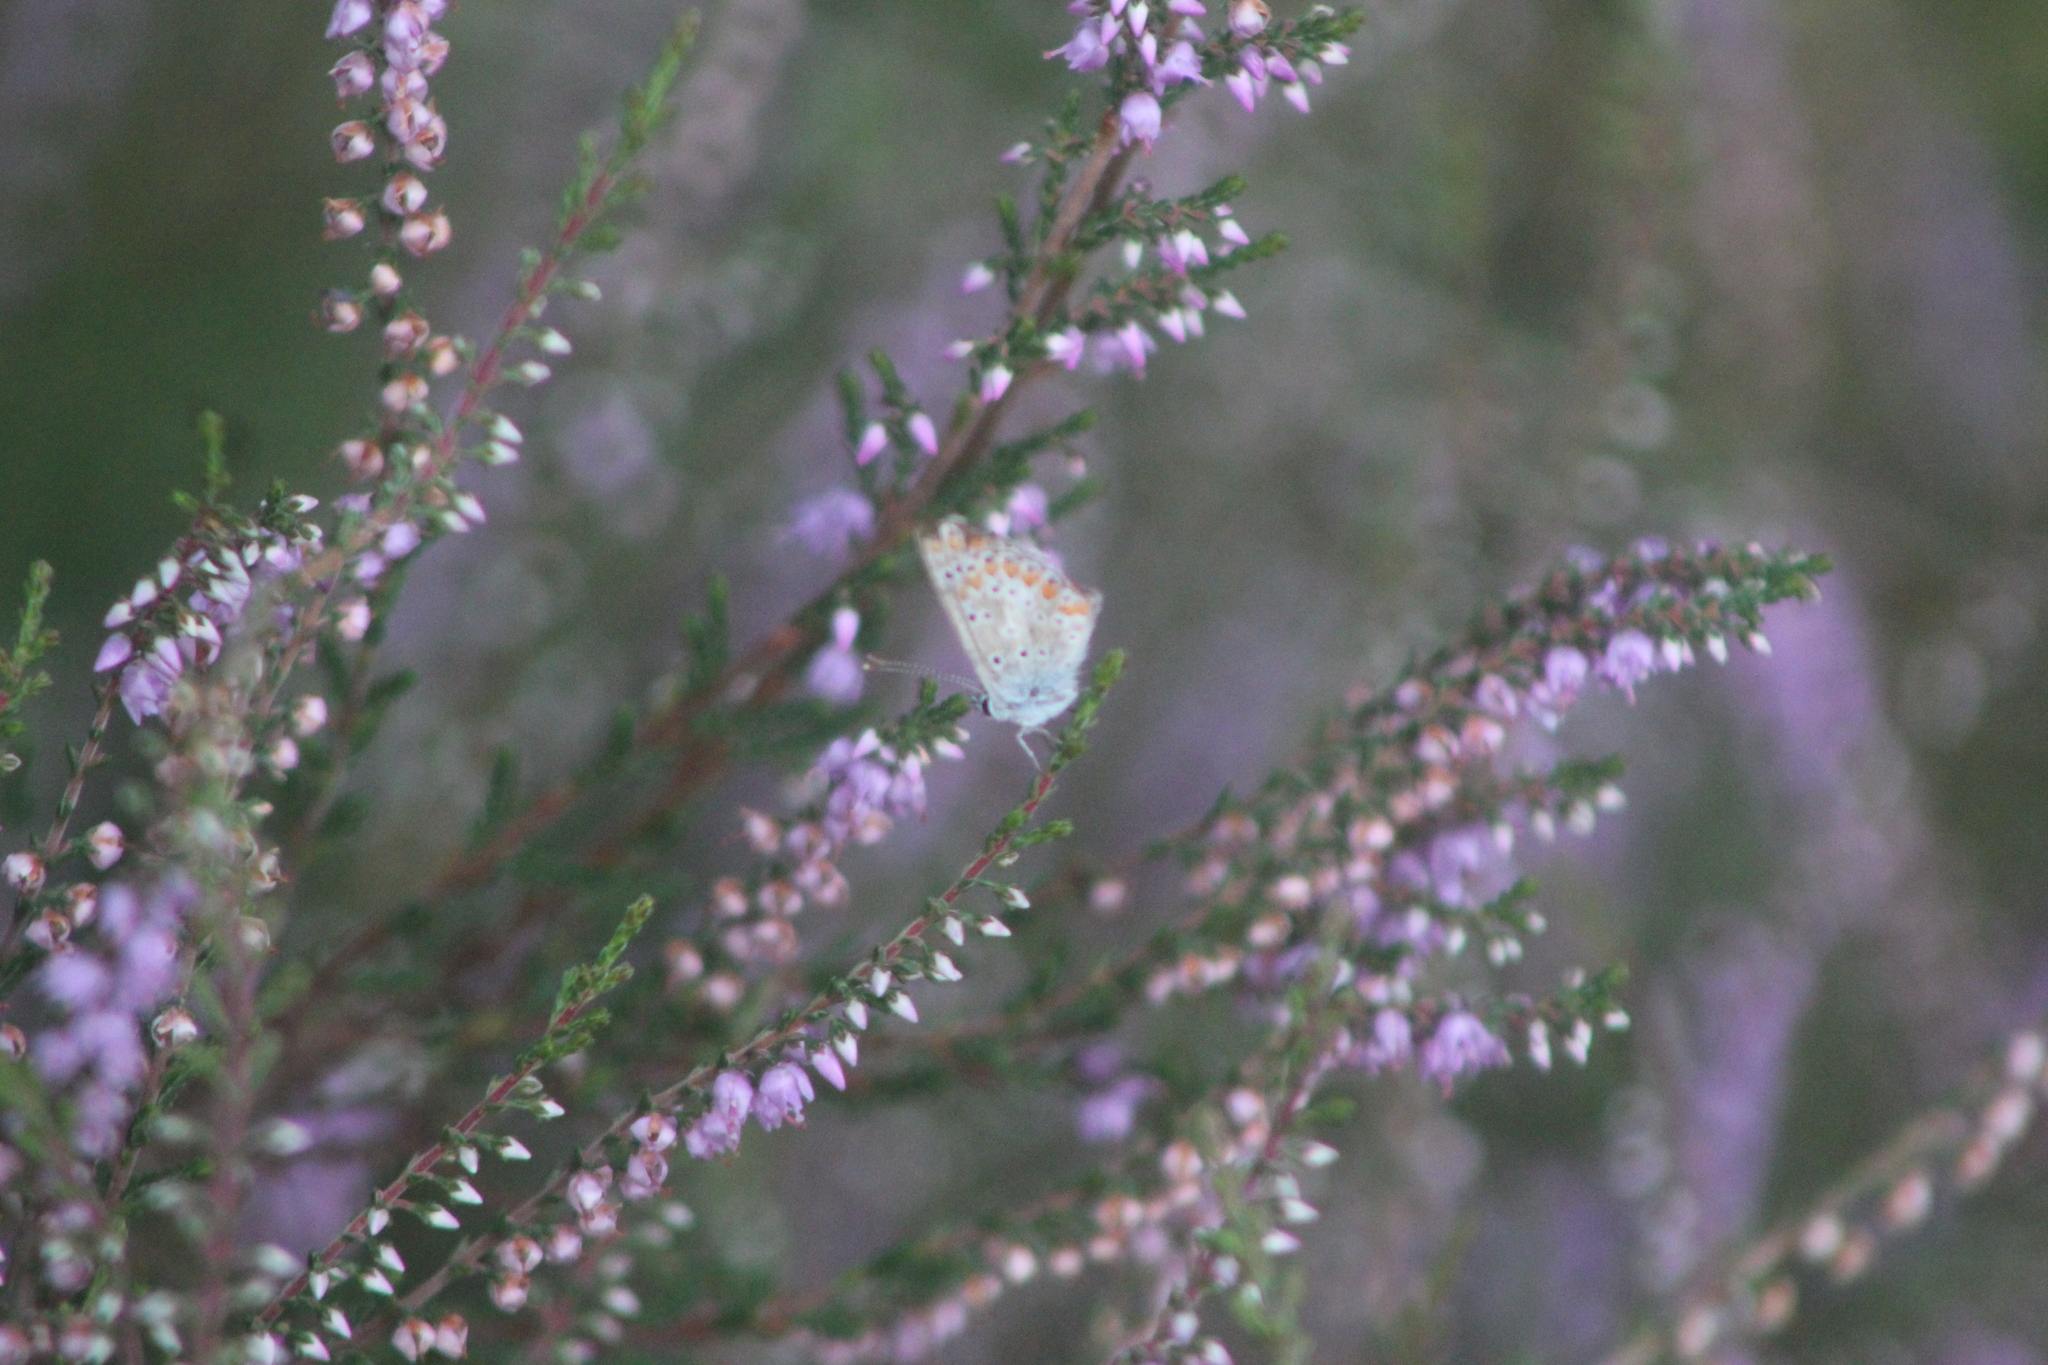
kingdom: Animalia
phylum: Arthropoda
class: Insecta
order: Lepidoptera
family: Lycaenidae
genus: Aricia
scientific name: Aricia agestis
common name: Brown argus
